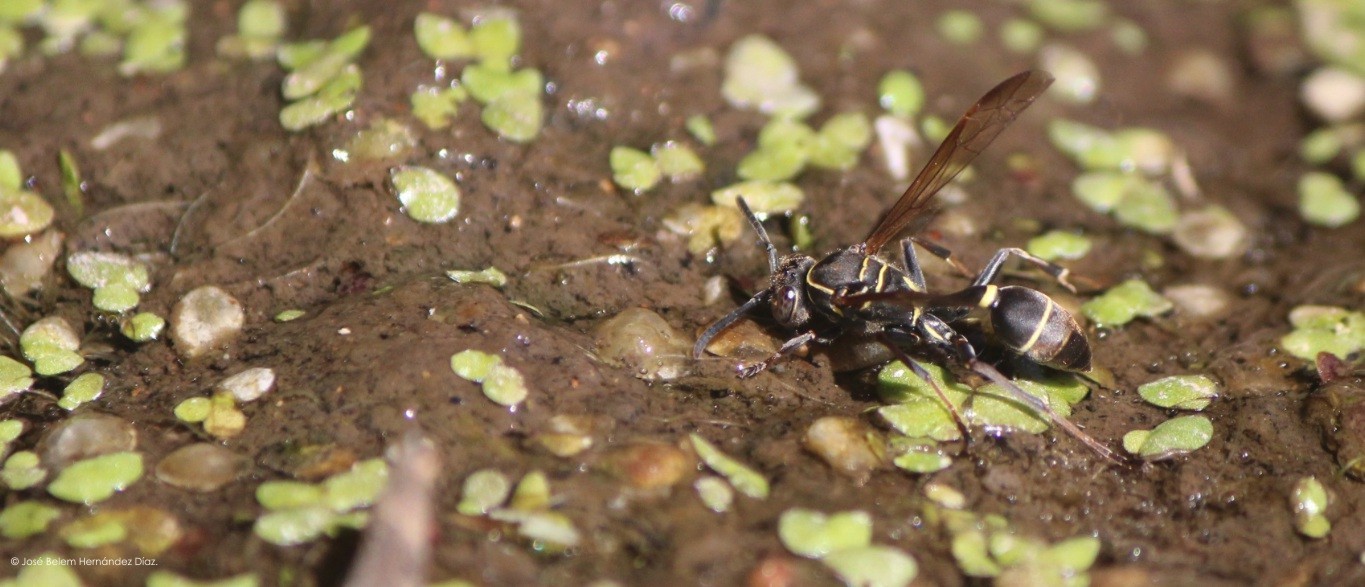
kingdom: Animalia
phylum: Arthropoda
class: Insecta
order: Hymenoptera
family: Vespidae
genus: Mischocyttarus
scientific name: Mischocyttarus rufidens
